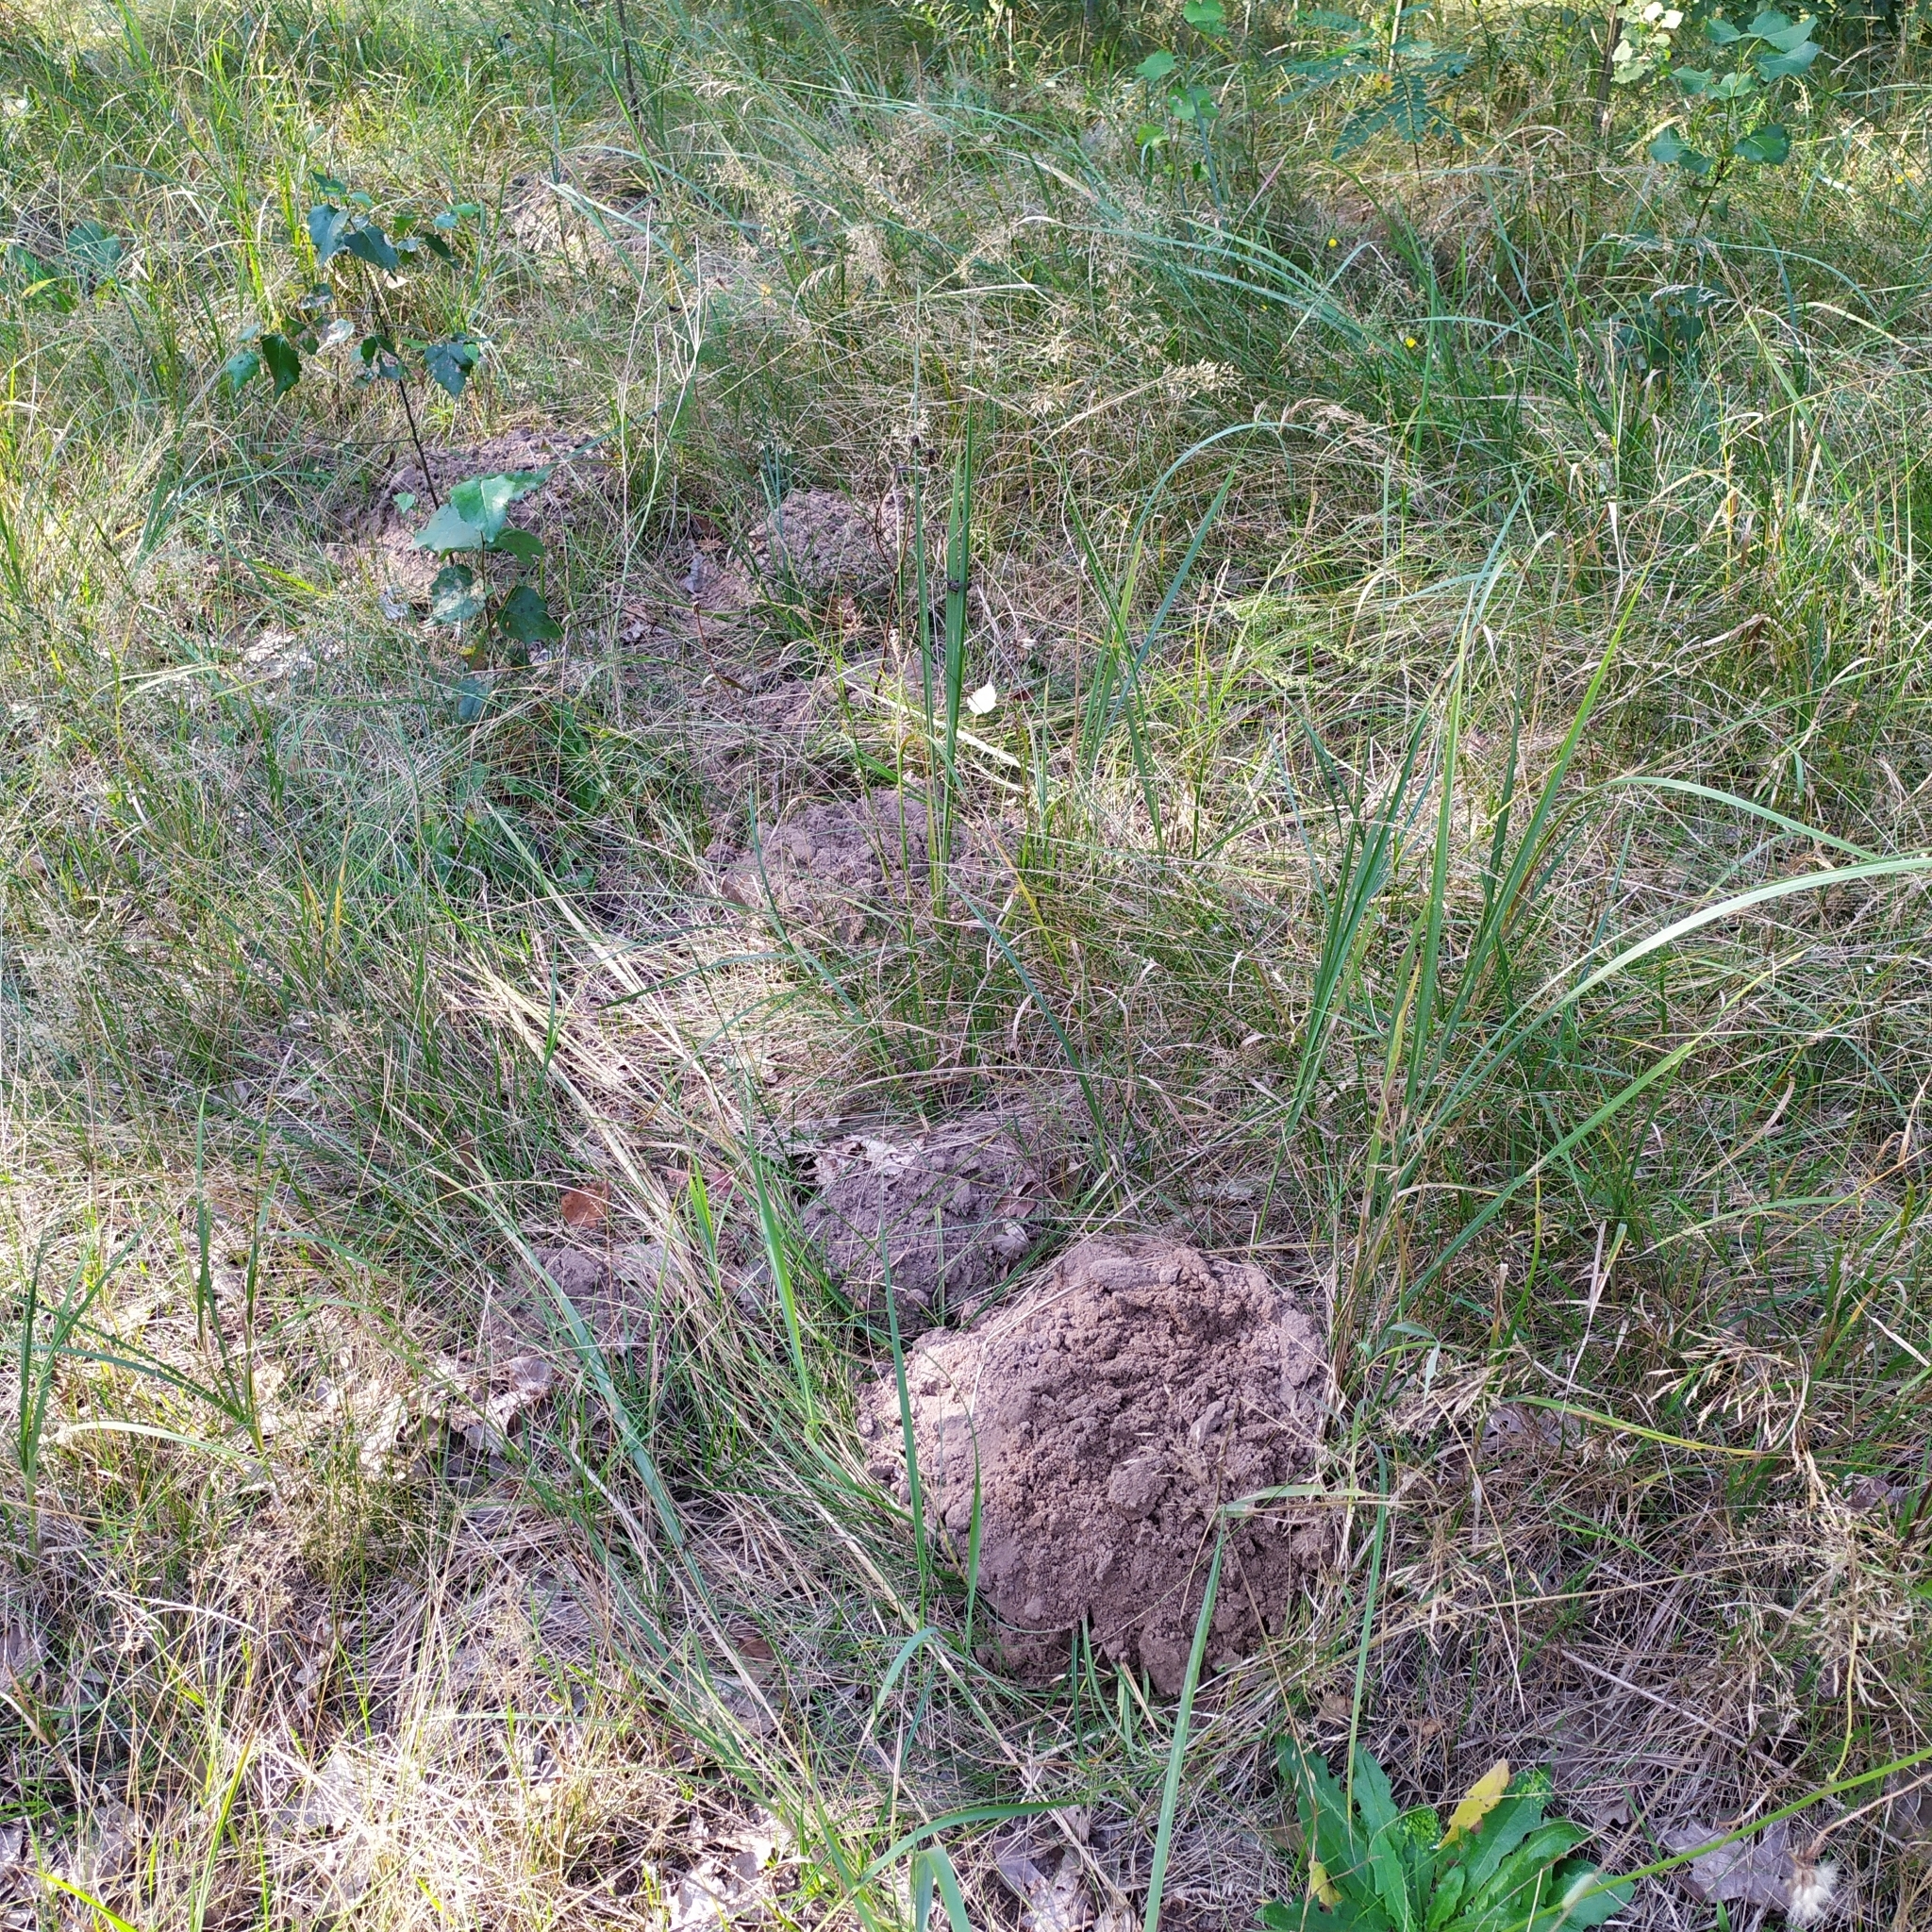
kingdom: Animalia
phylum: Chordata
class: Mammalia
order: Soricomorpha
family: Talpidae
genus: Talpa
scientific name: Talpa europaea
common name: European mole
